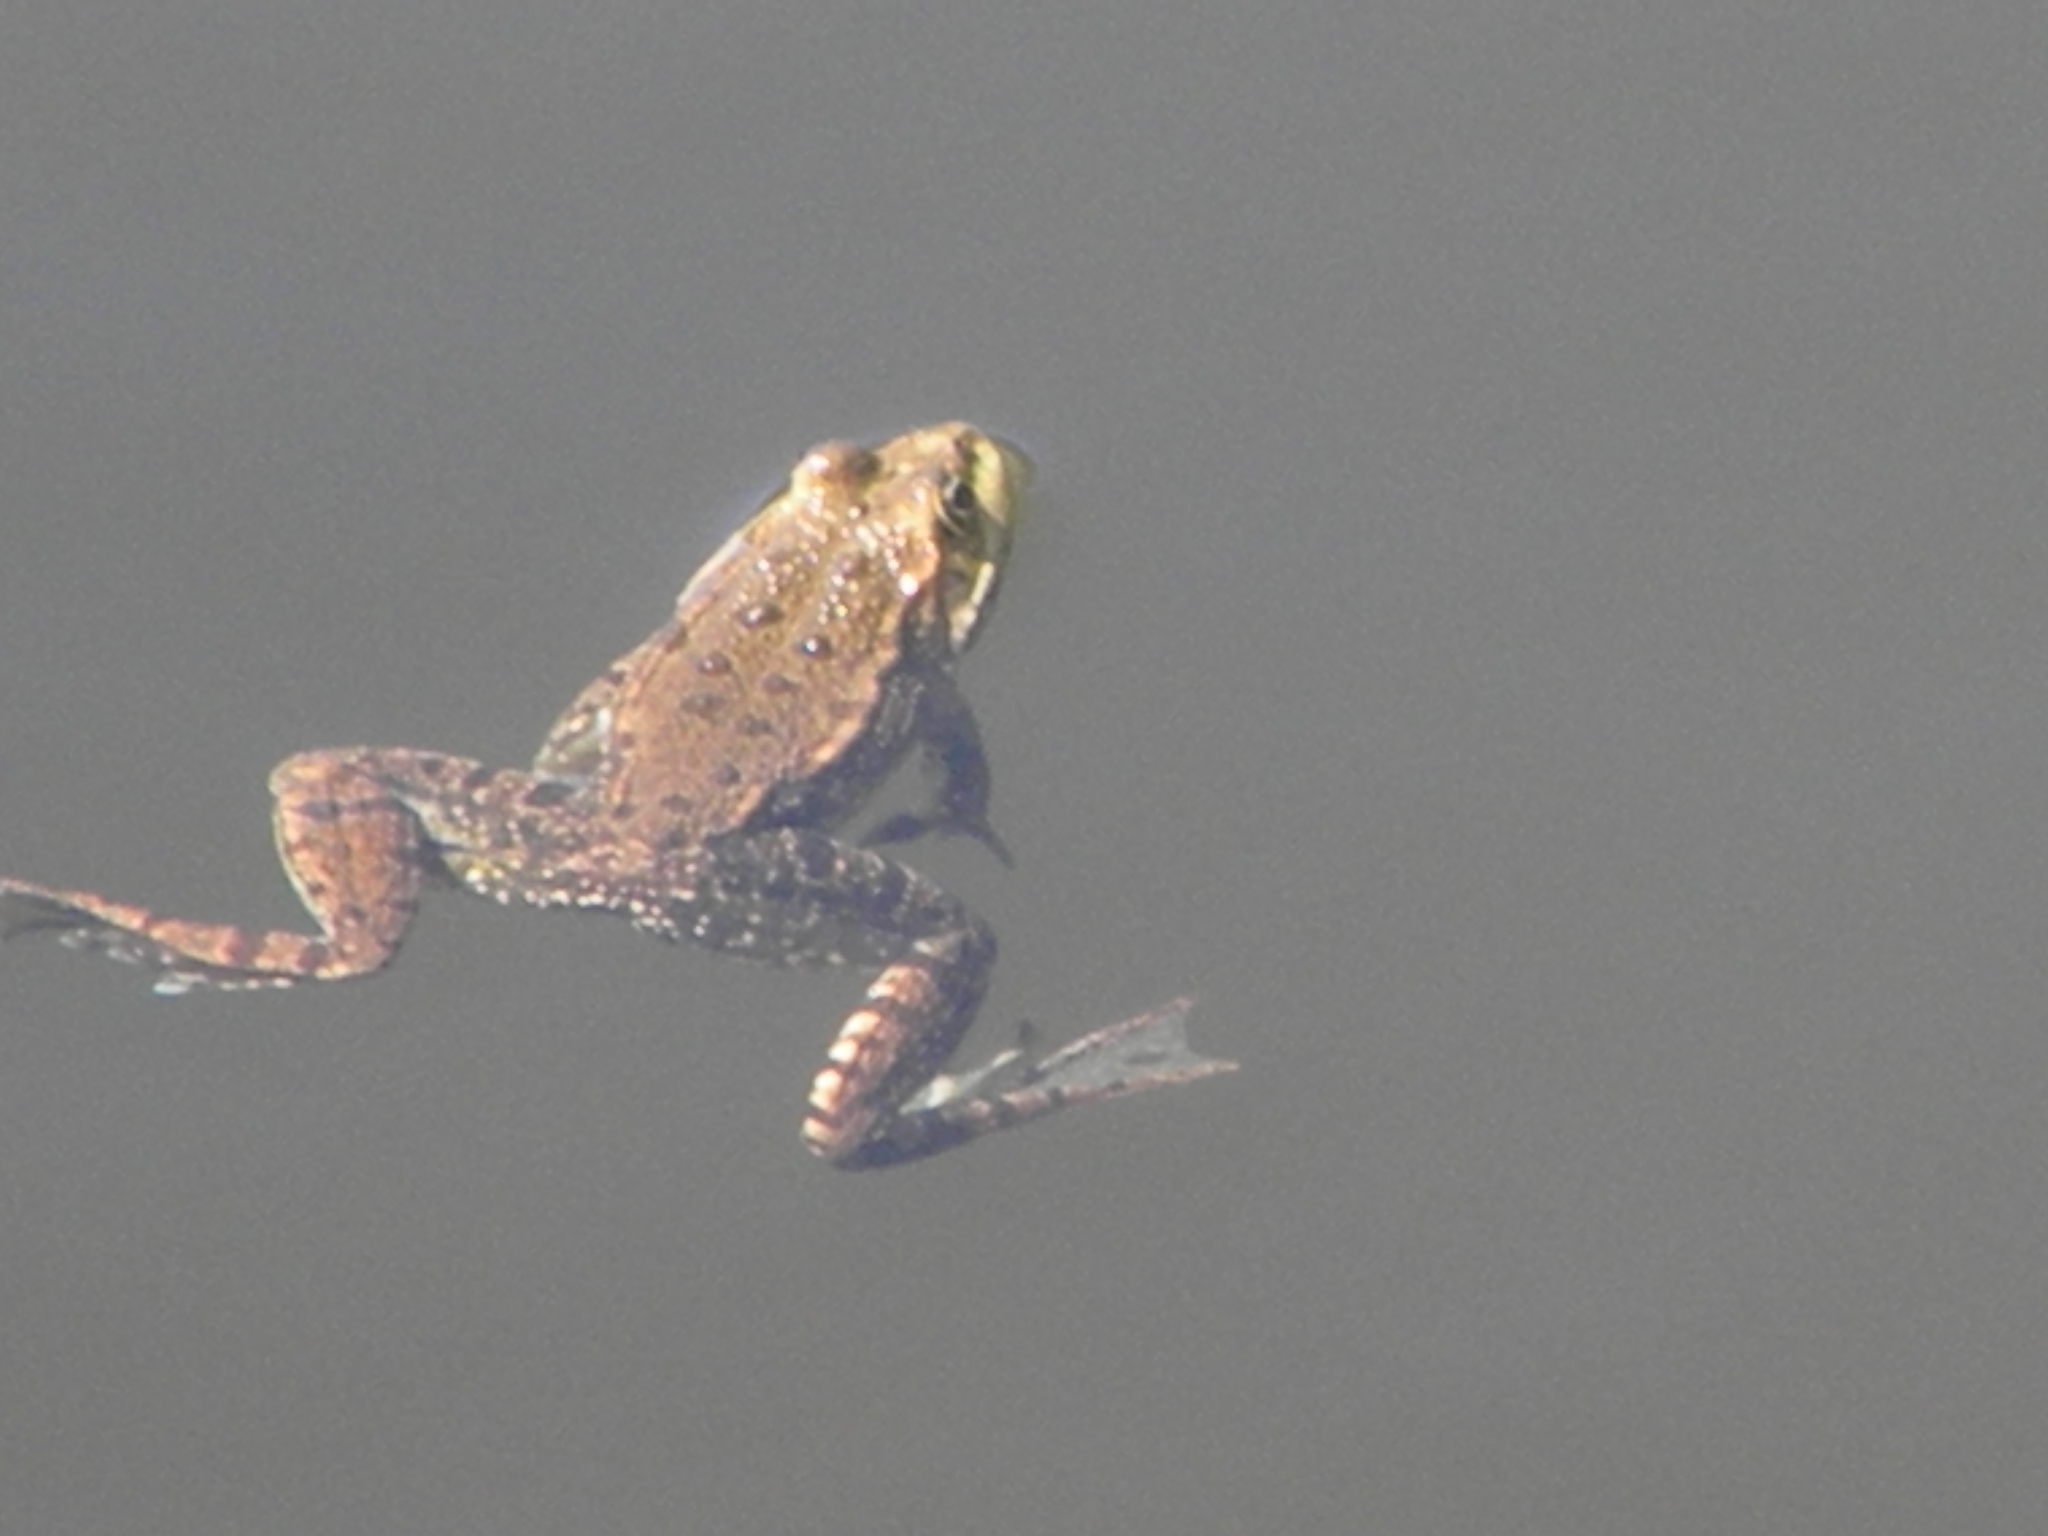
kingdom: Animalia
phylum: Chordata
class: Amphibia
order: Anura
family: Ranidae
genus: Pelophylax
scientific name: Pelophylax ridibundus
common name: Marsh frog
